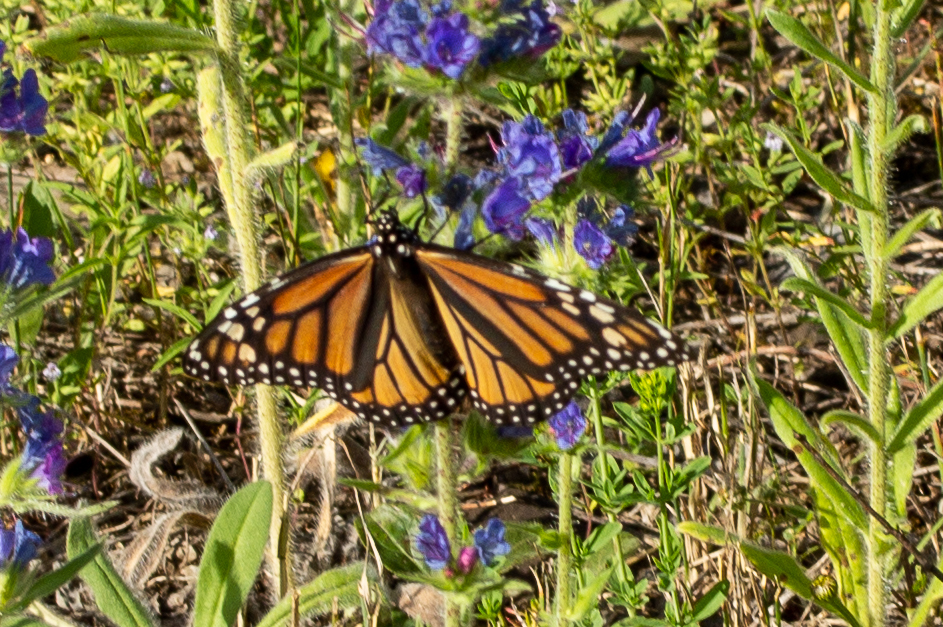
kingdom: Animalia
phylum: Arthropoda
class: Insecta
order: Lepidoptera
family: Nymphalidae
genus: Danaus
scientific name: Danaus plexippus
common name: Monarch
